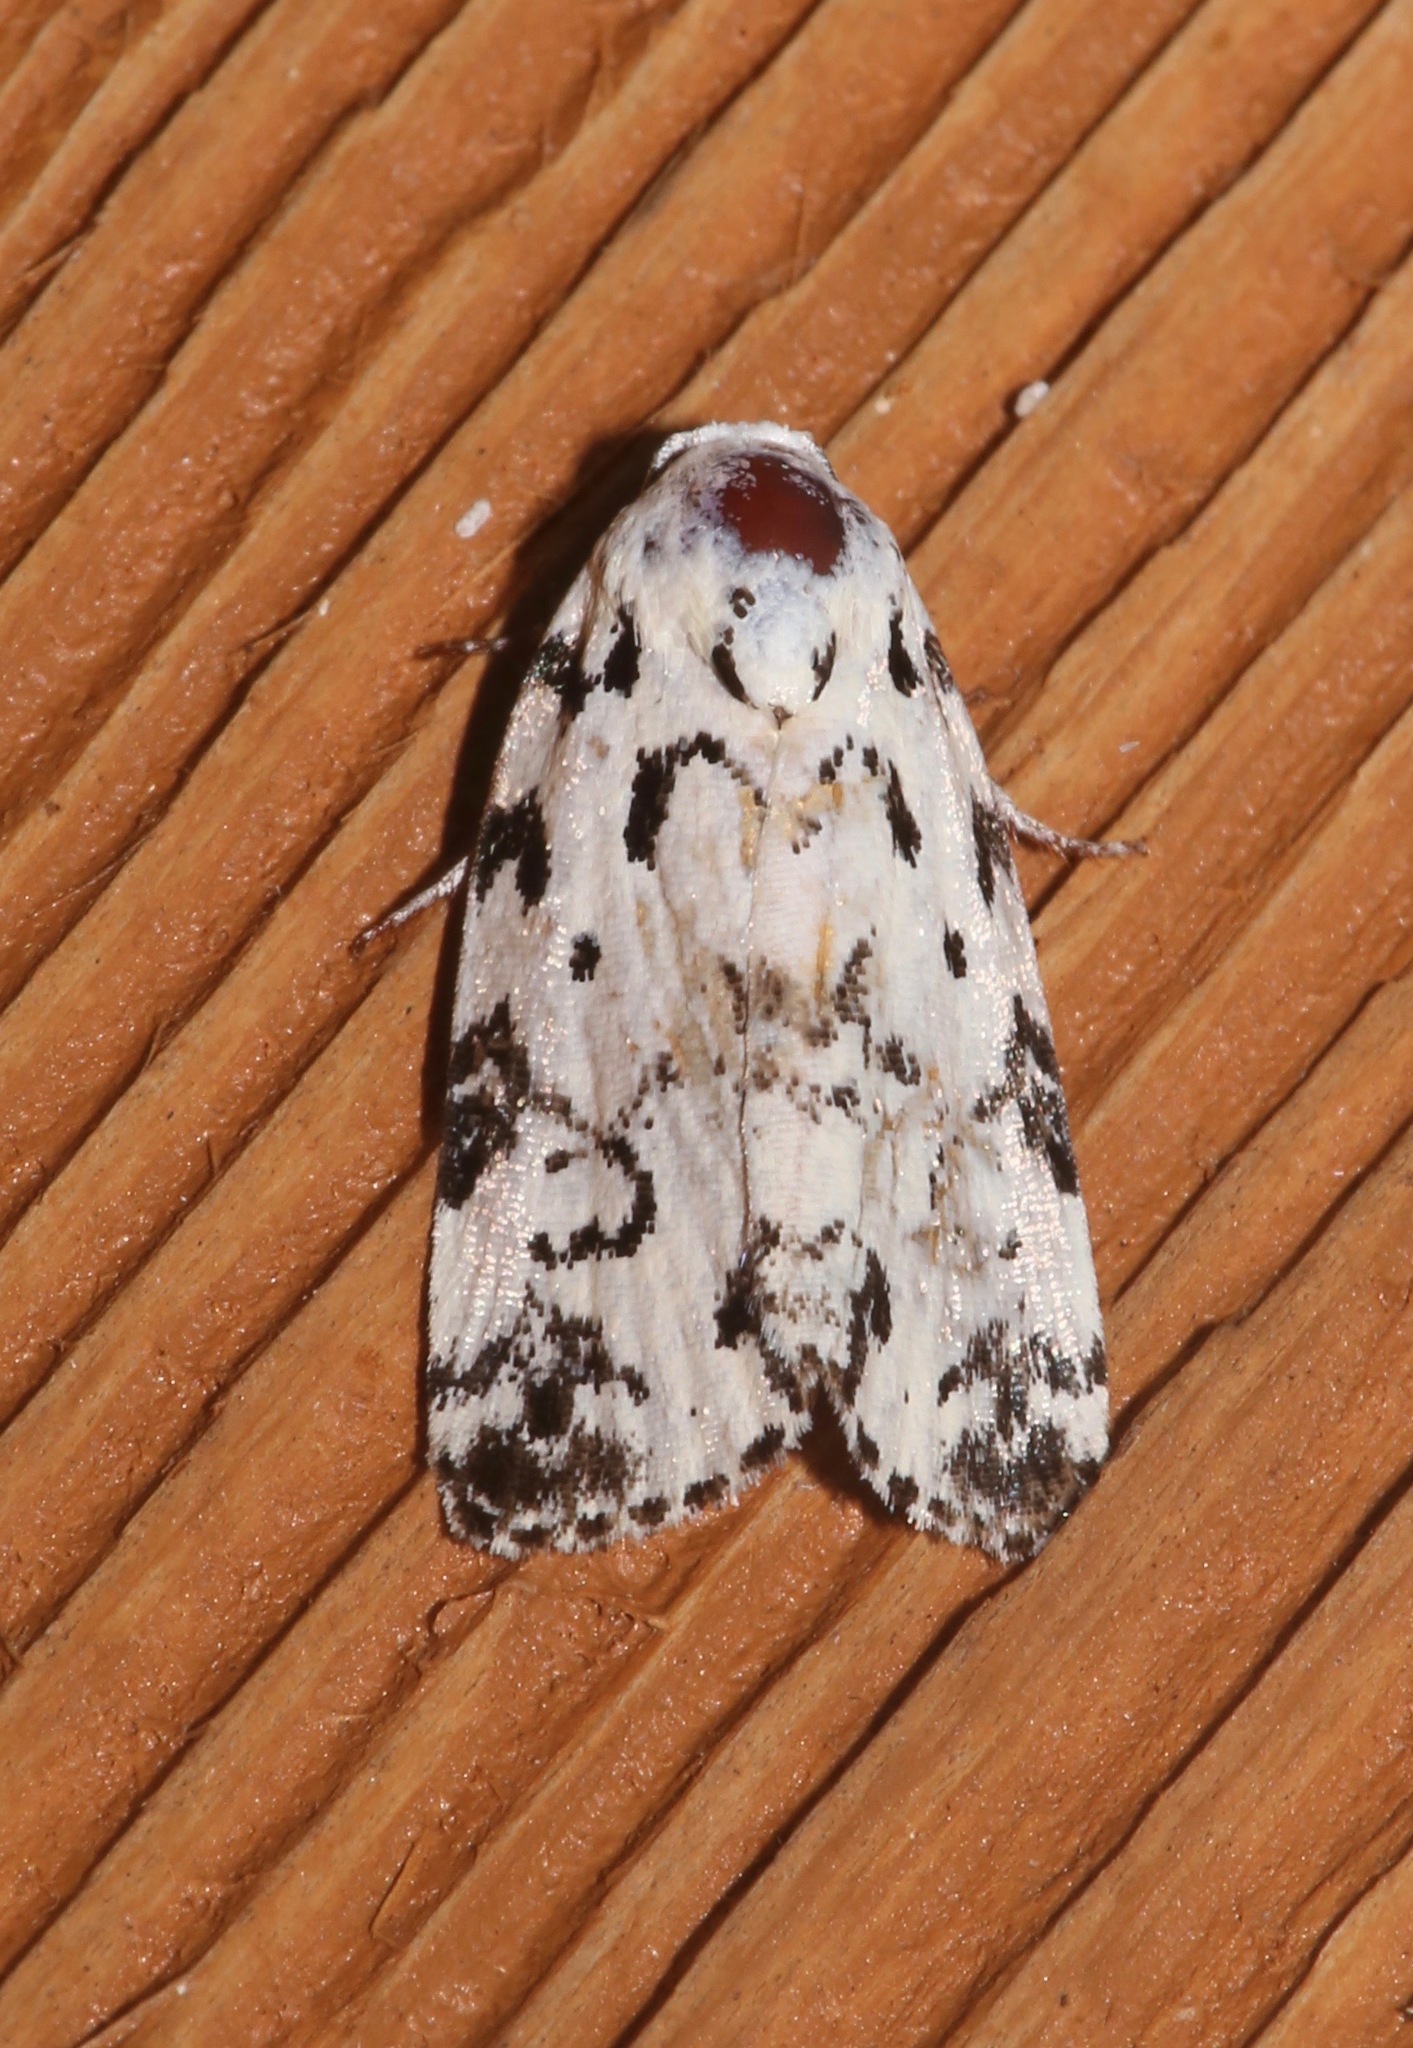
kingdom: Animalia
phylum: Arthropoda
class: Insecta
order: Lepidoptera
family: Noctuidae
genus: Polygrammate
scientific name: Polygrammate hebraeicum
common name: Hebrew moth
